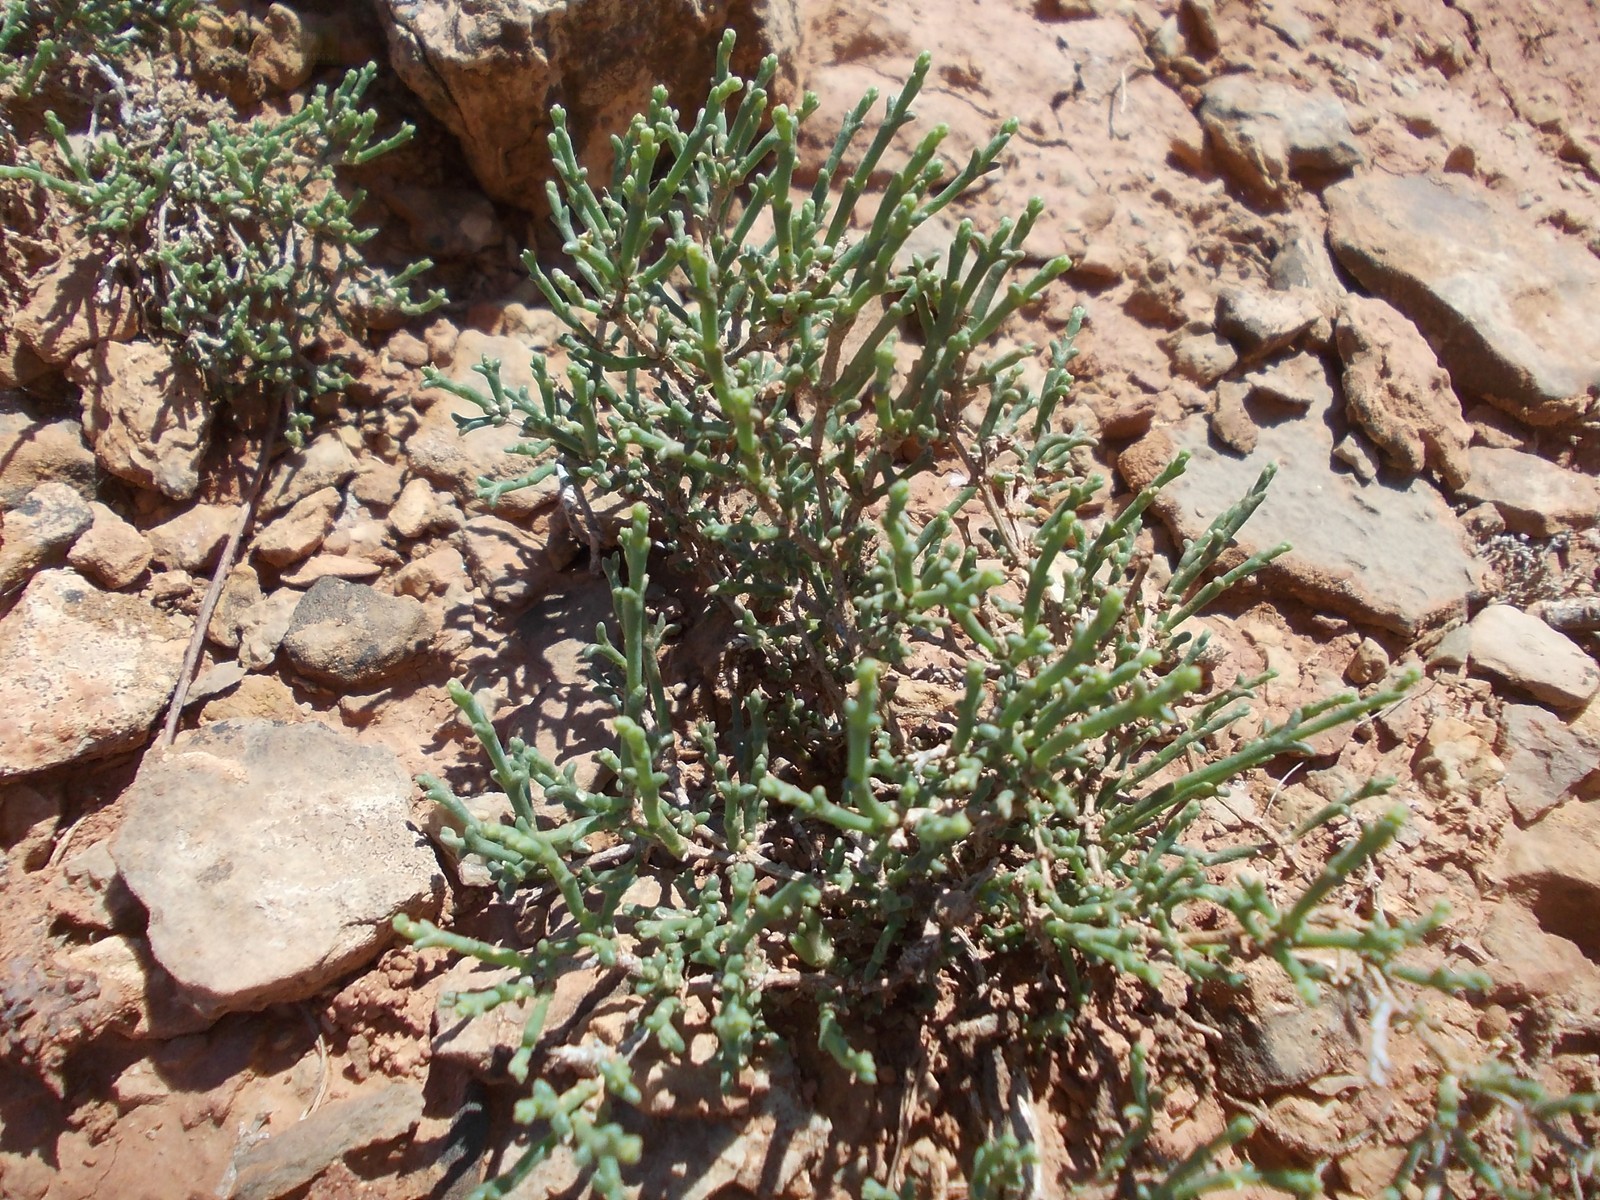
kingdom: Plantae
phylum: Tracheophyta
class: Magnoliopsida
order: Caryophyllales
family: Amaranthaceae
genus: Anabasis
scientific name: Anabasis salsa
